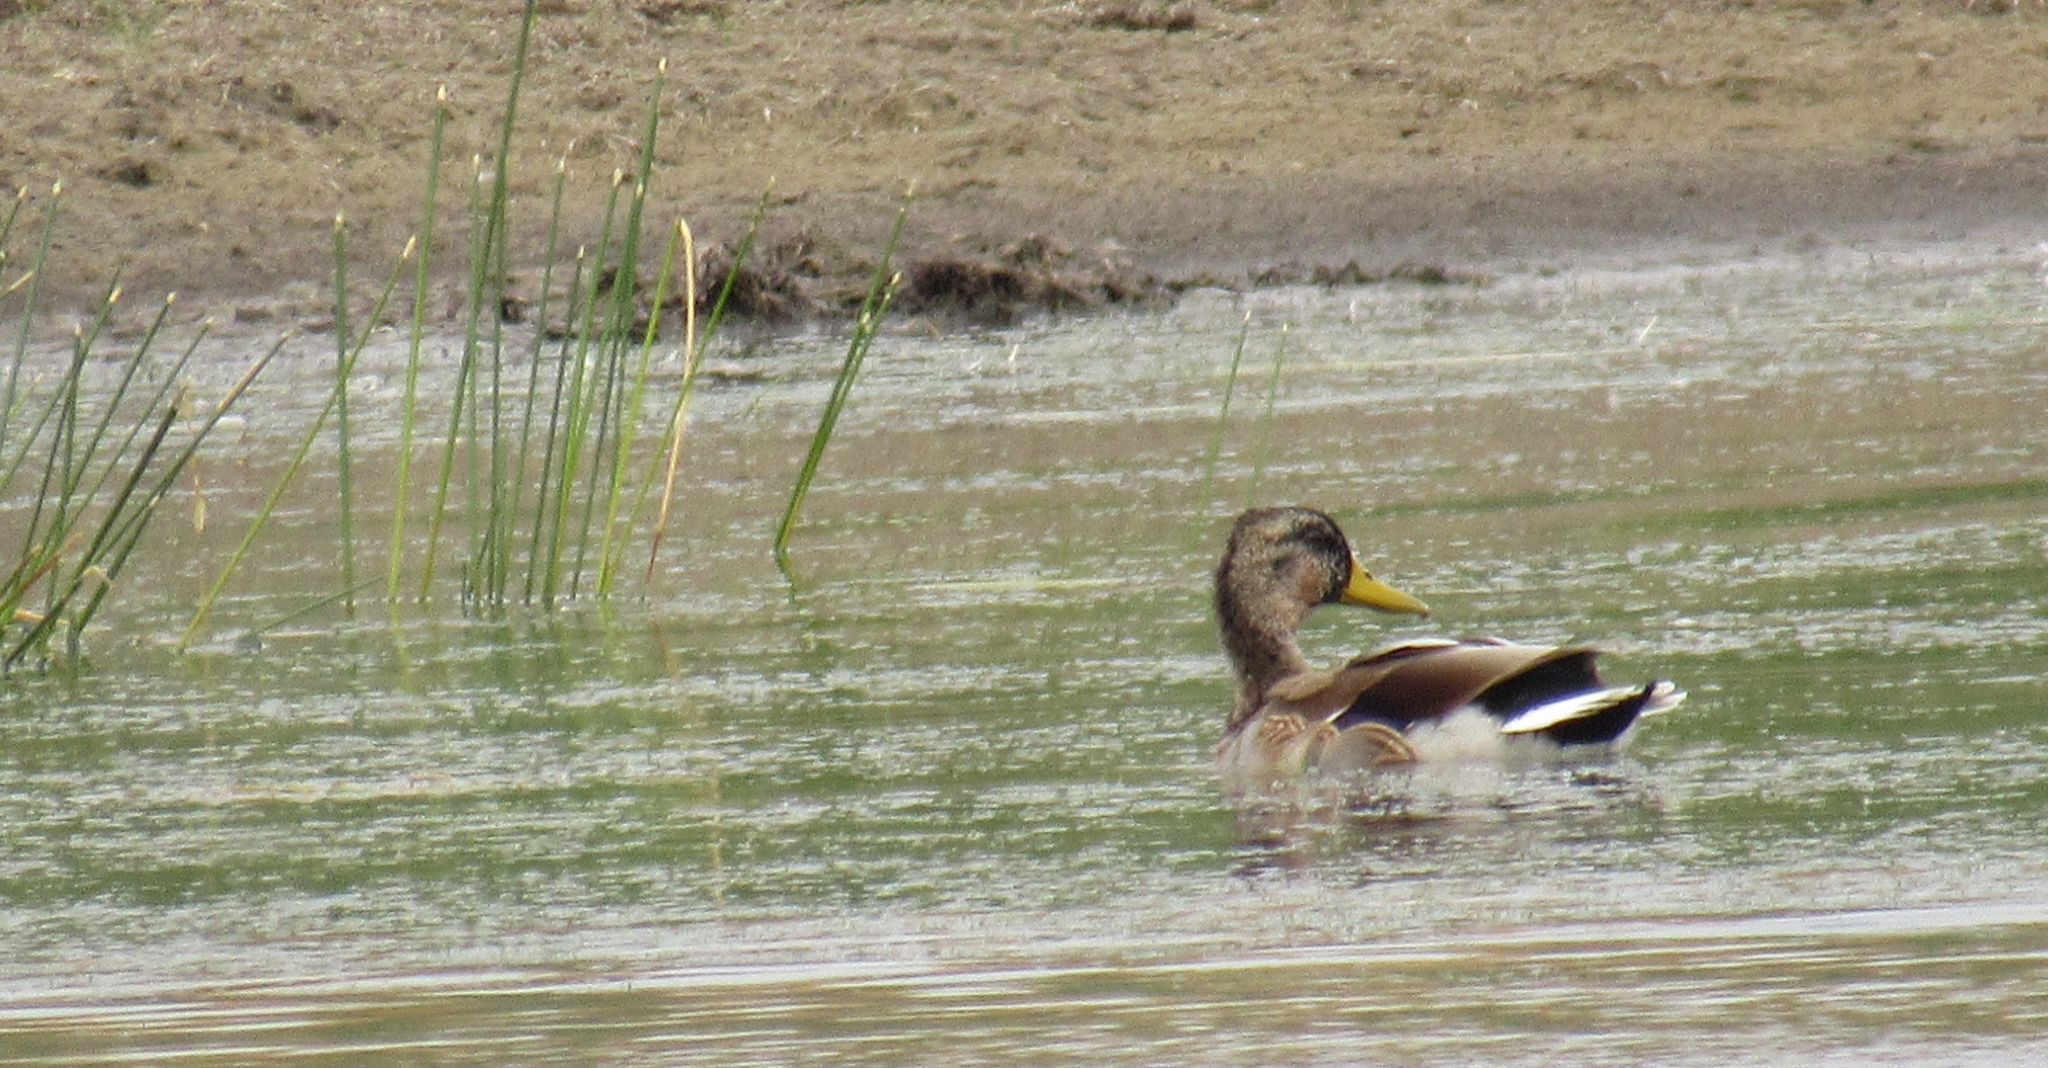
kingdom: Animalia
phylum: Chordata
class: Aves
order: Anseriformes
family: Anatidae
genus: Anas
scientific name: Anas platyrhynchos
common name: Mallard
